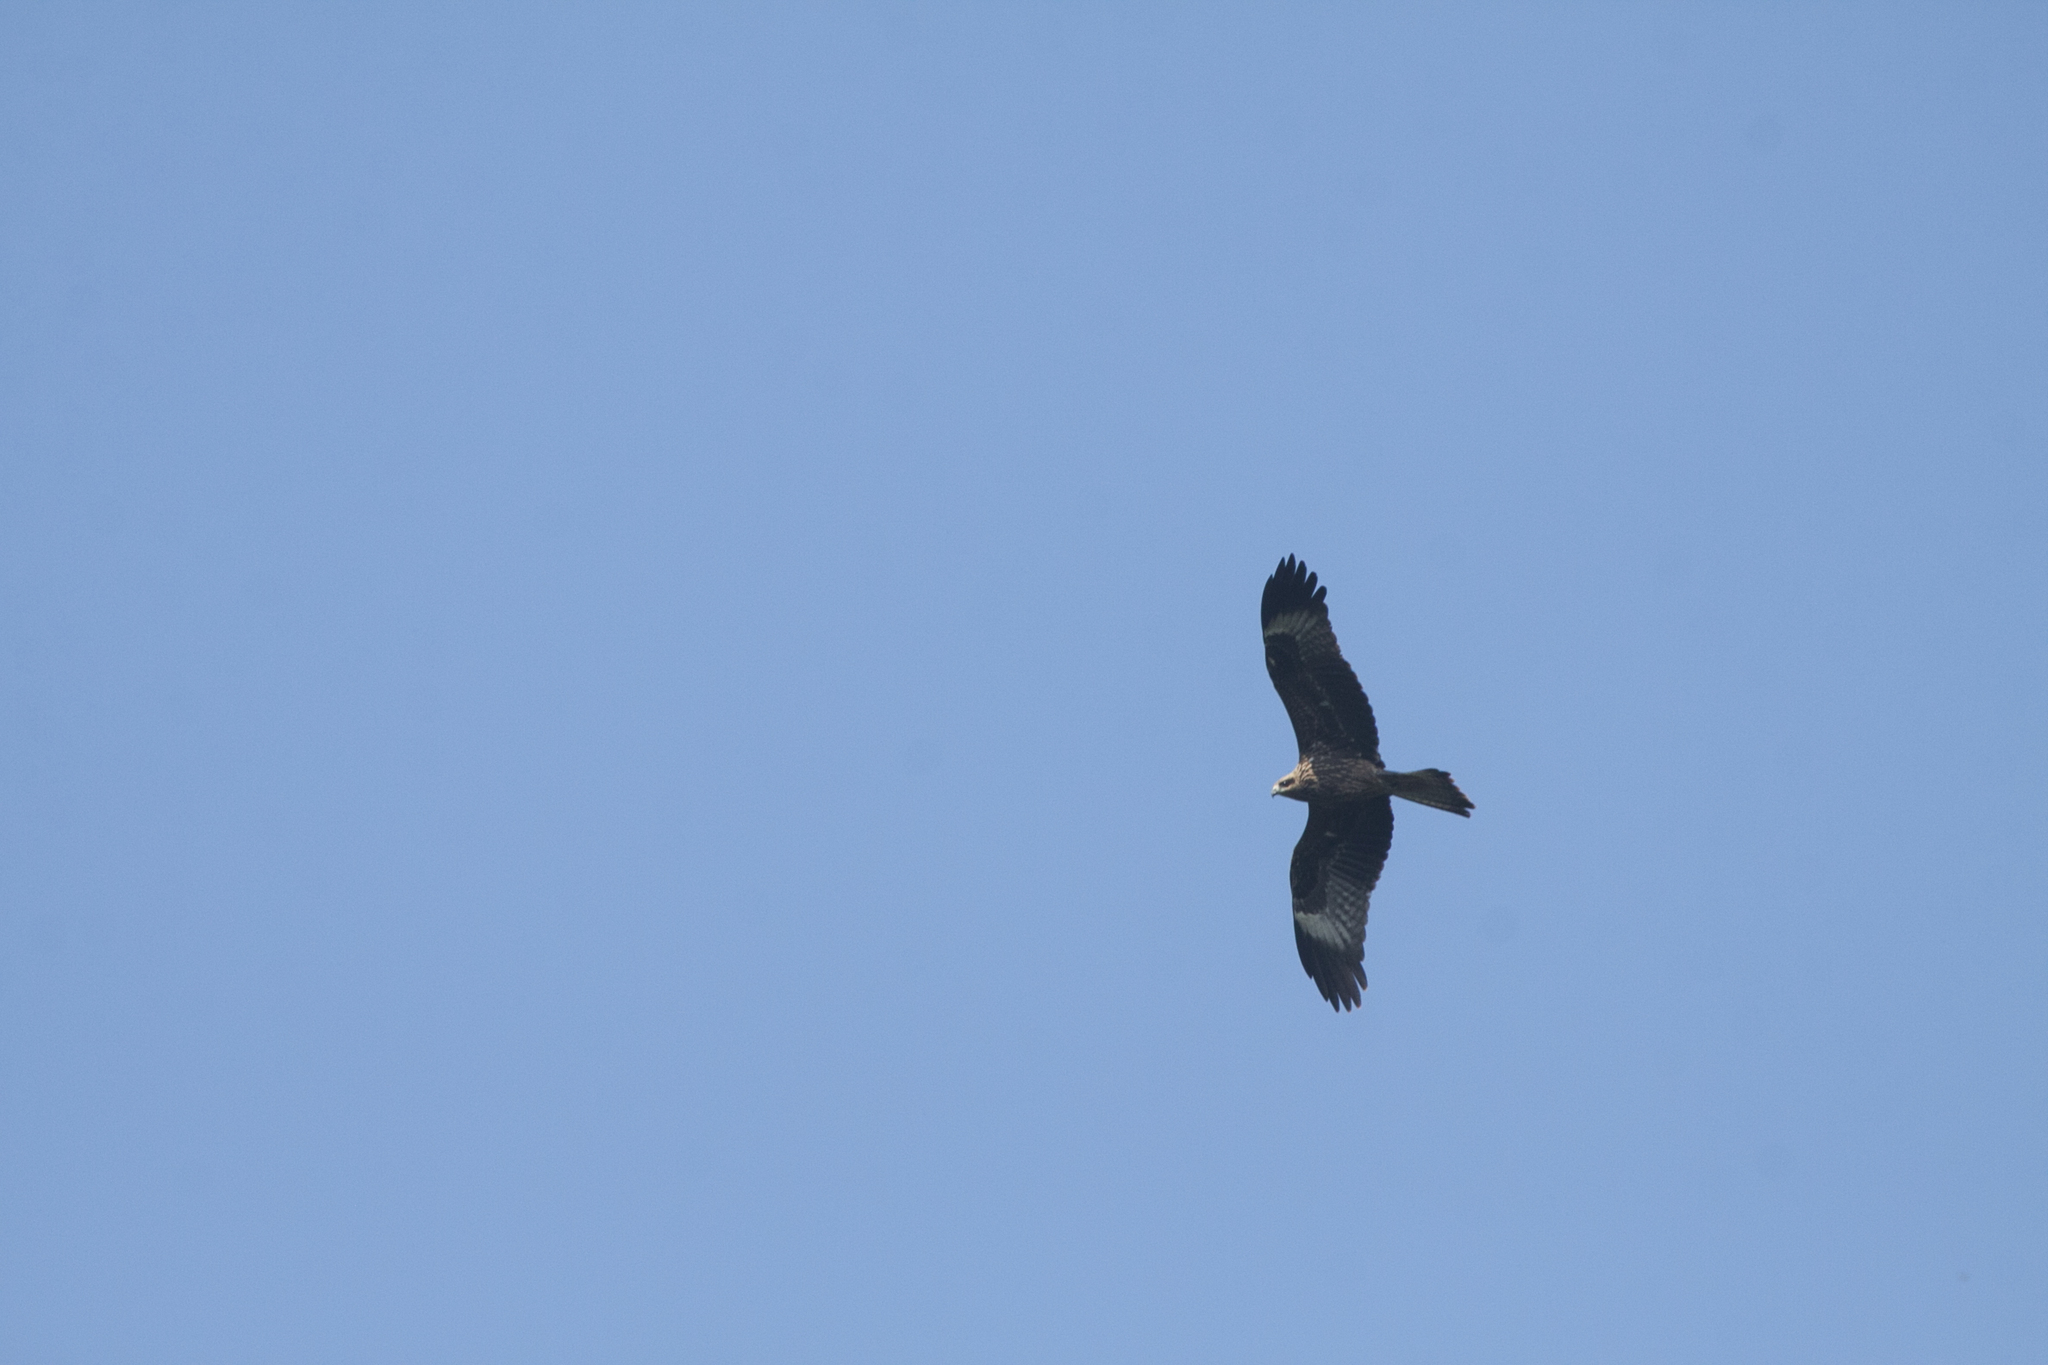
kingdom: Animalia
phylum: Chordata
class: Aves
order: Accipitriformes
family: Accipitridae
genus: Milvus
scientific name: Milvus migrans
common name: Black kite
